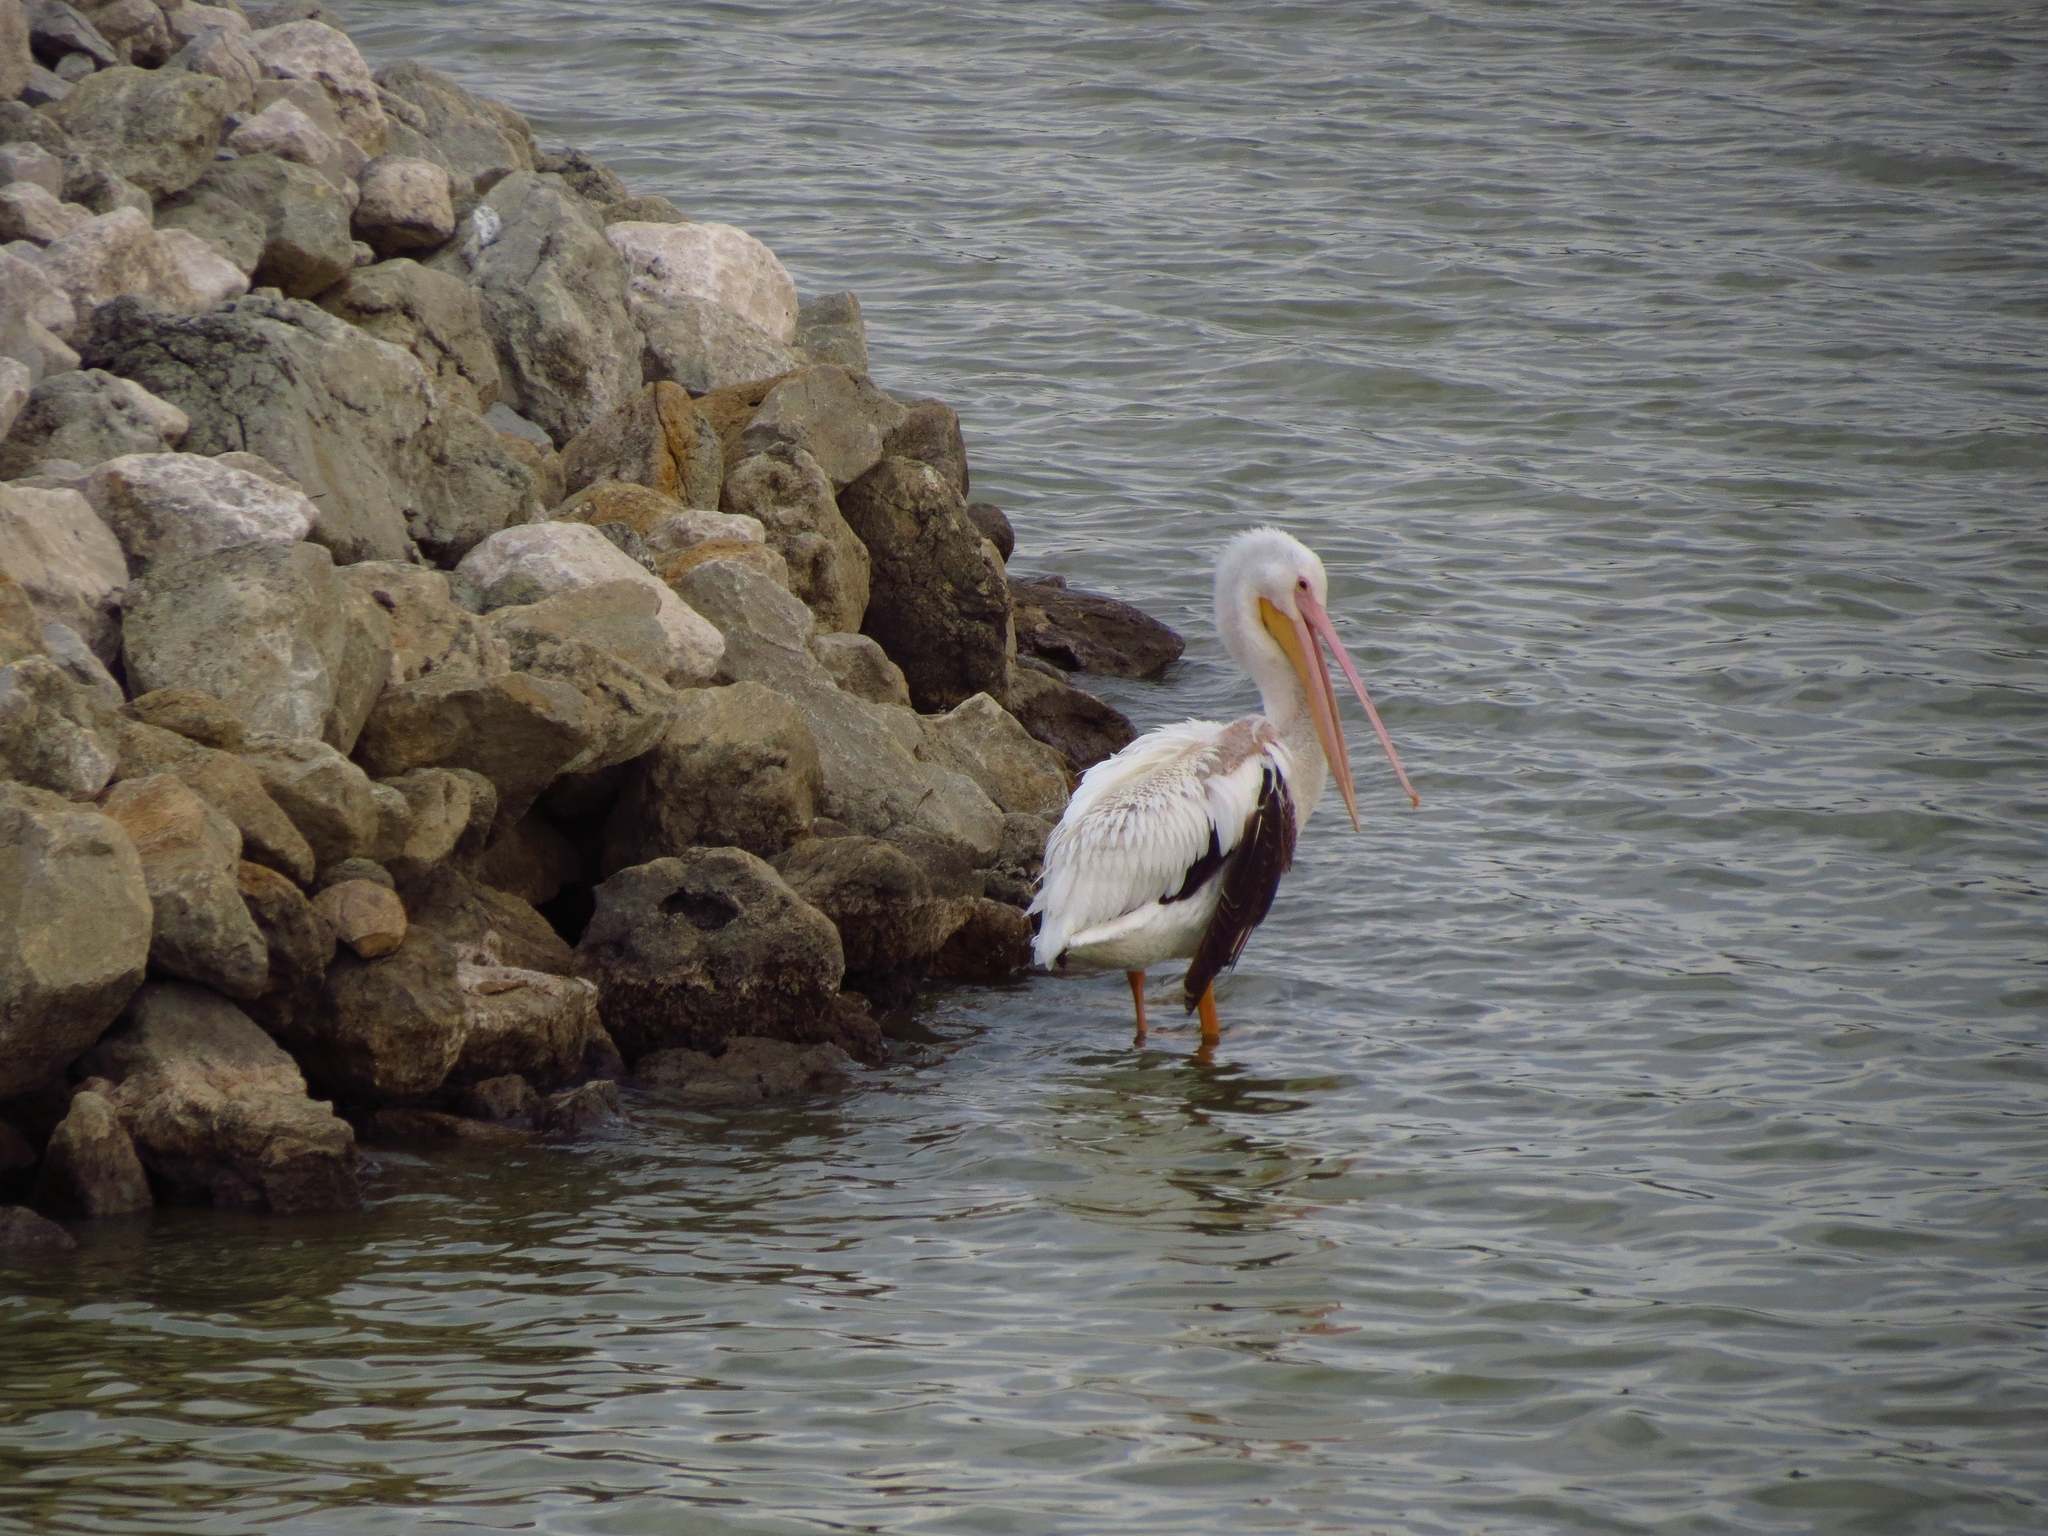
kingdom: Animalia
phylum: Chordata
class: Aves
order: Pelecaniformes
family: Pelecanidae
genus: Pelecanus
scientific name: Pelecanus erythrorhynchos
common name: American white pelican
